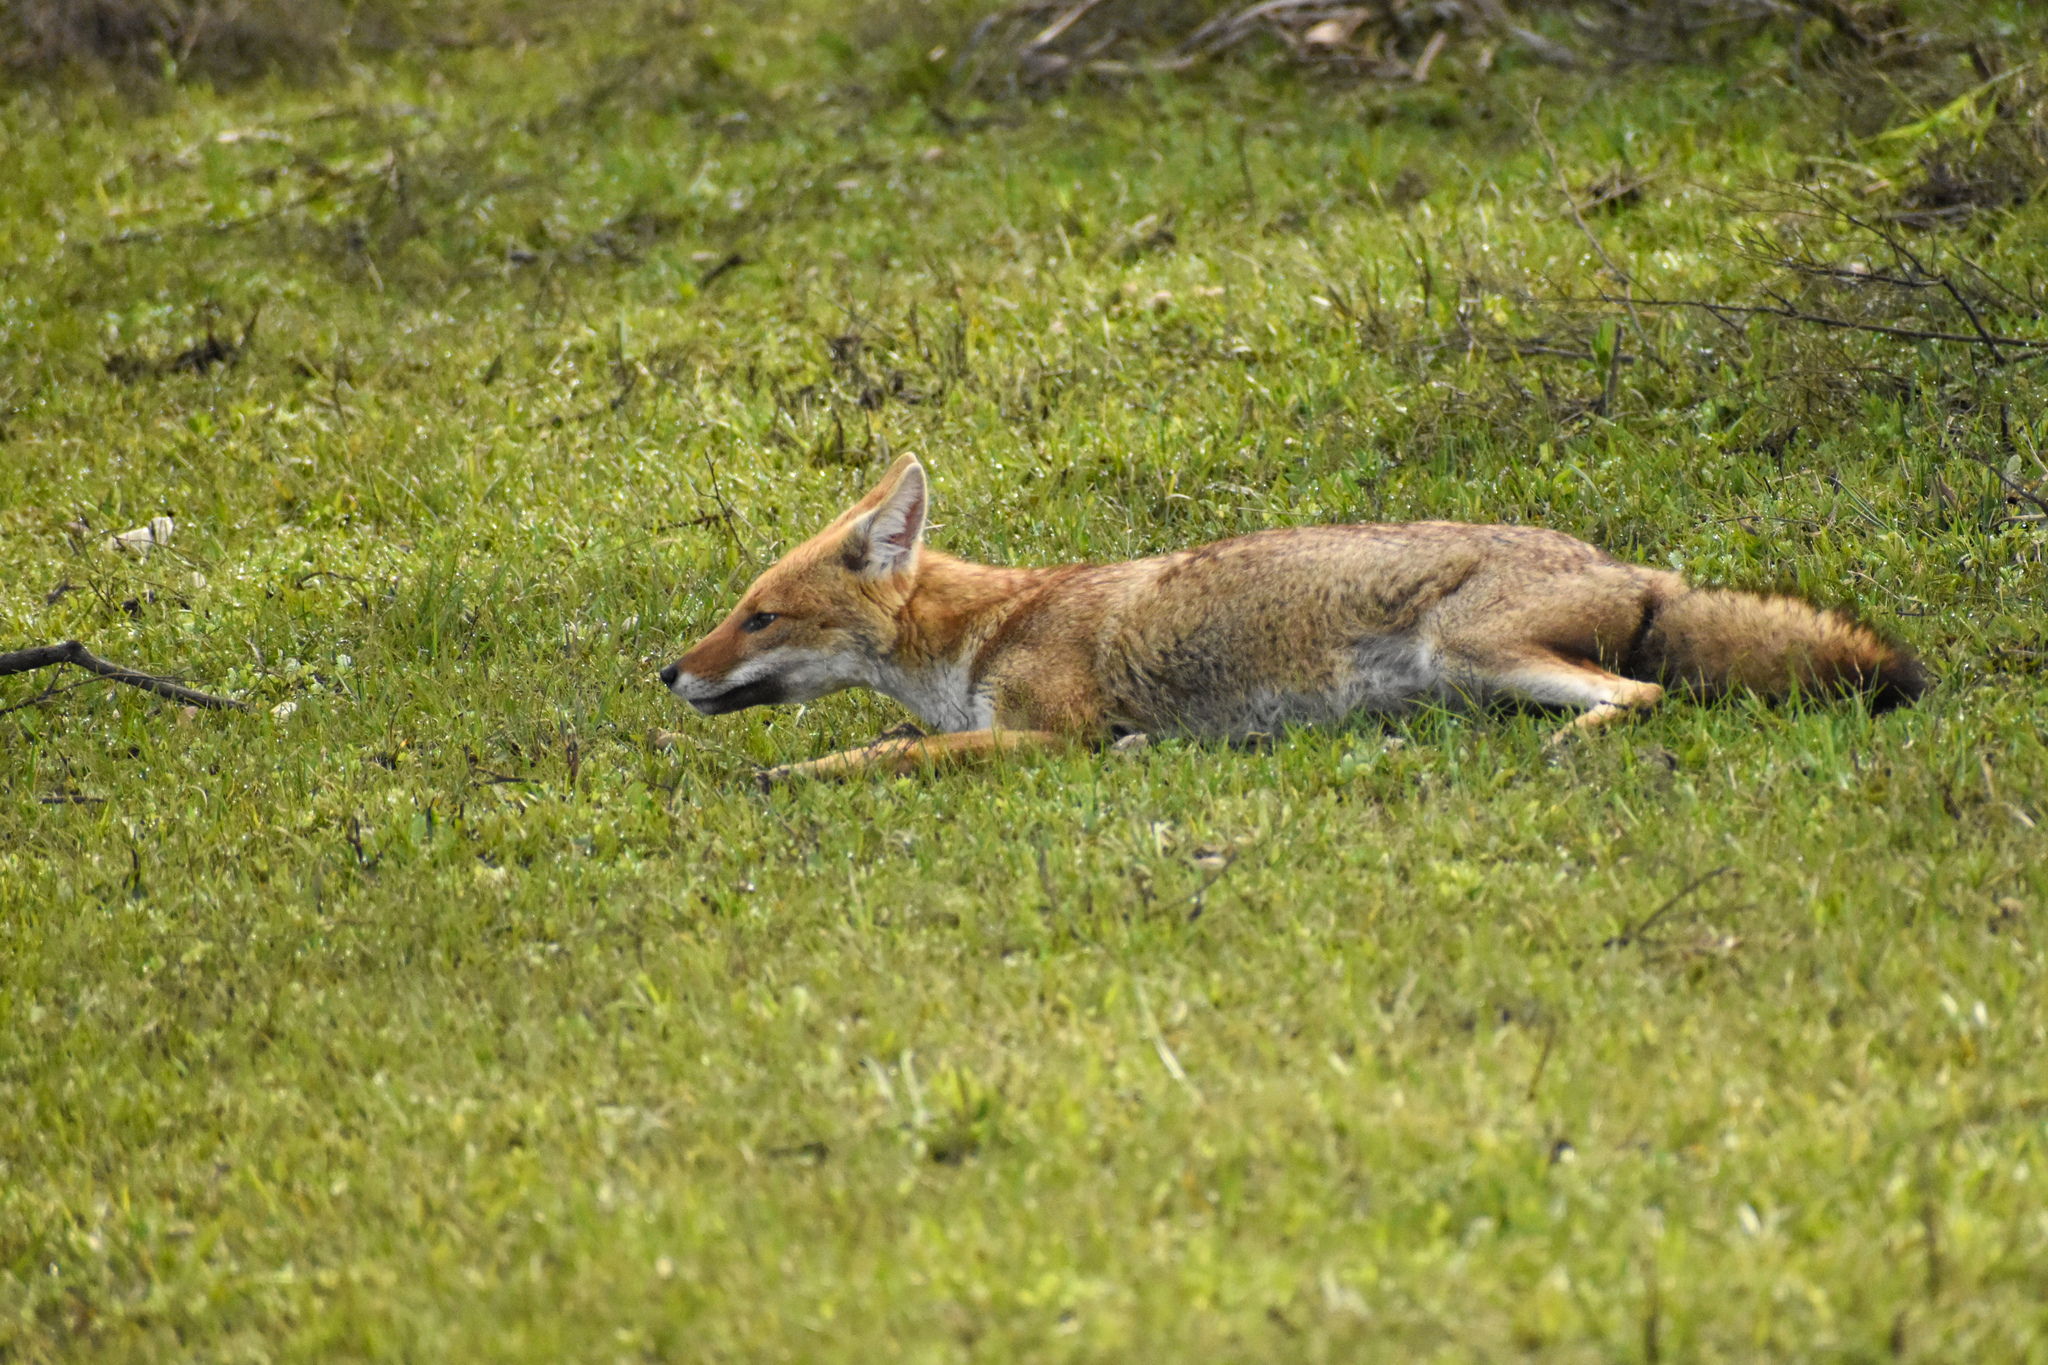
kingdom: Animalia
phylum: Chordata
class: Mammalia
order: Carnivora
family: Canidae
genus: Lycalopex
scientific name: Lycalopex gymnocercus
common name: Pampas fox
